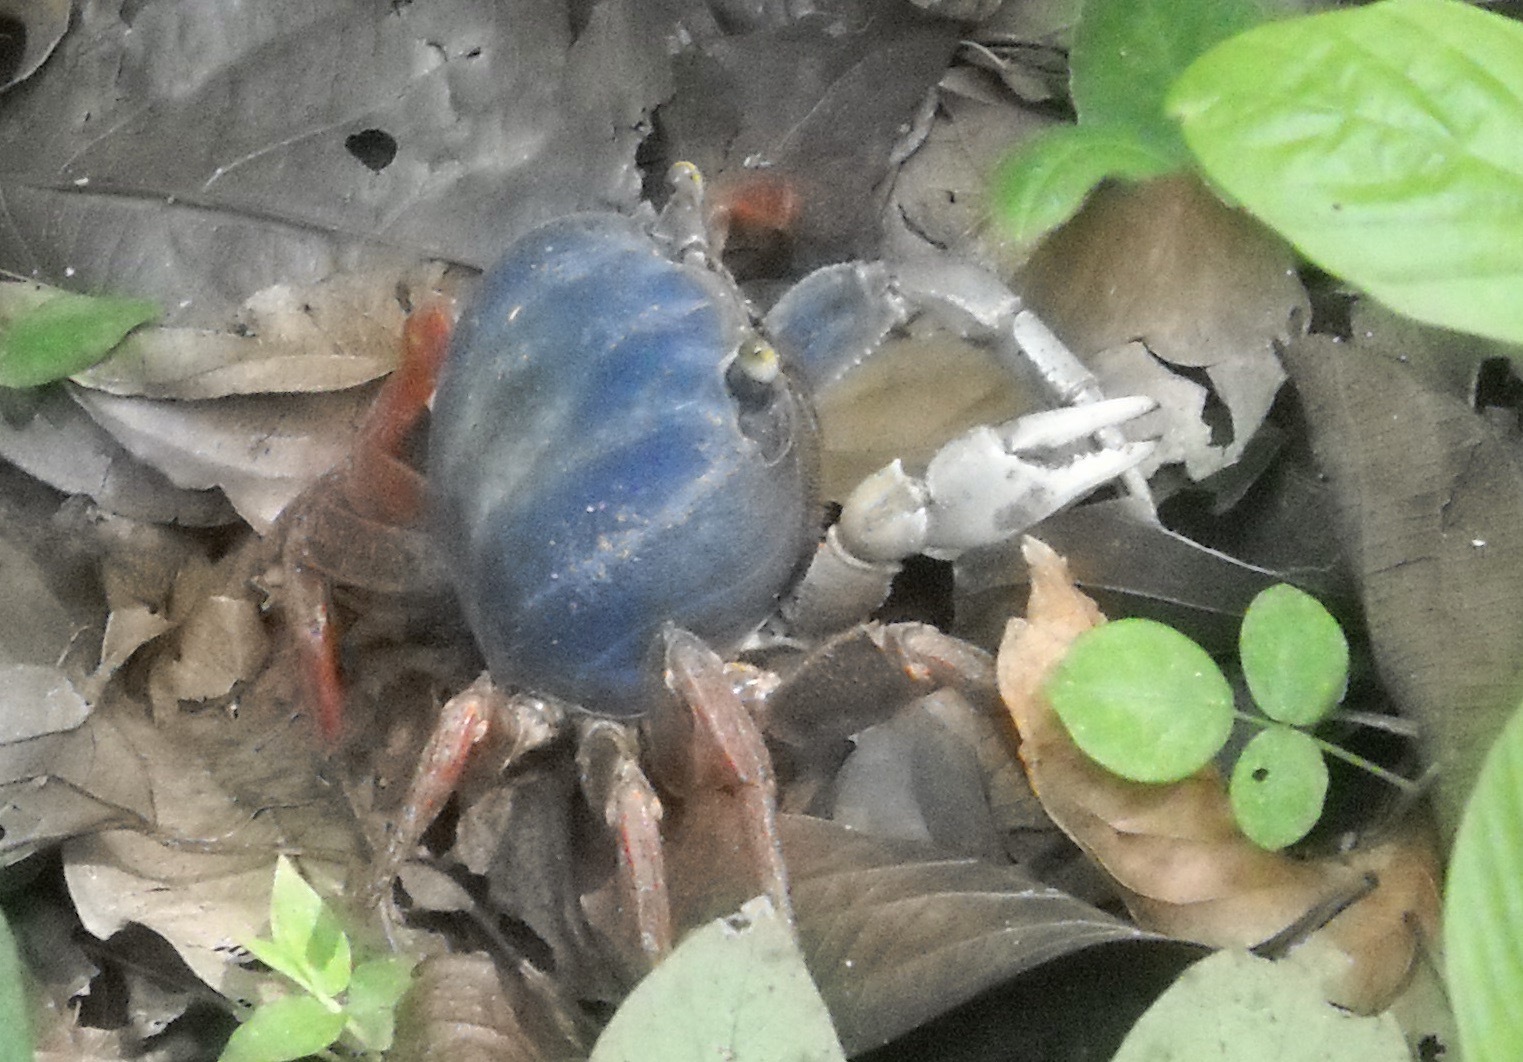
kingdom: Animalia
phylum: Arthropoda
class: Malacostraca
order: Decapoda
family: Gecarcinidae
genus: Cardisoma
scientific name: Cardisoma crassum
